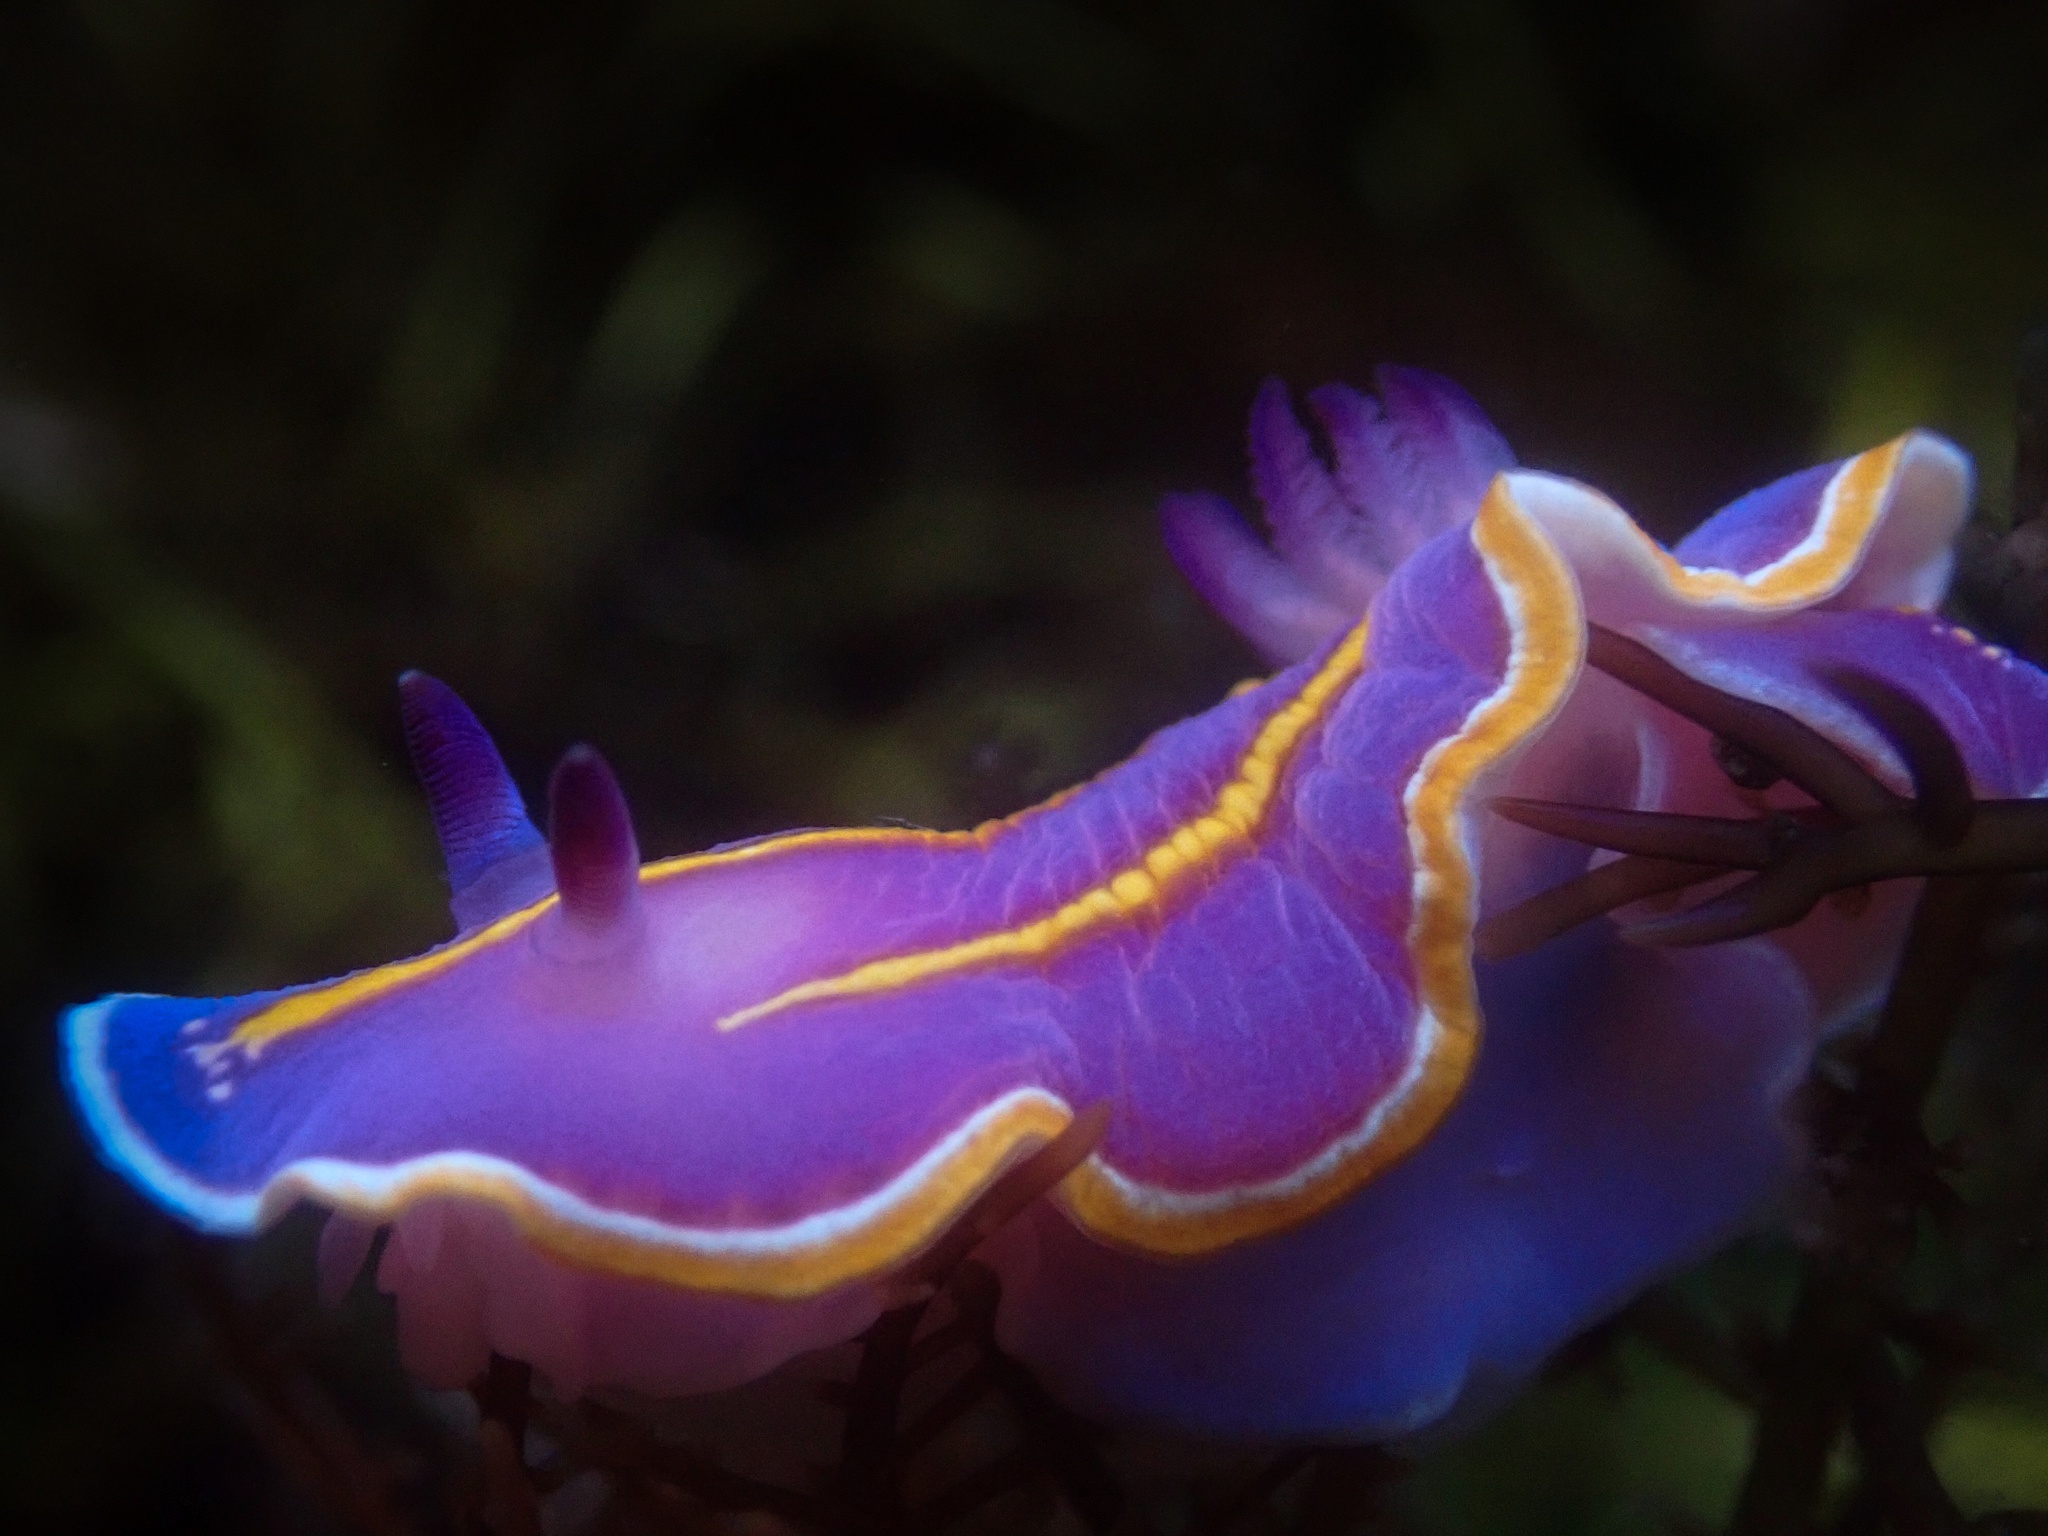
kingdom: Animalia
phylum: Mollusca
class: Gastropoda
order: Nudibranchia
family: Chromodorididae
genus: Felimida
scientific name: Felimida macfarlandi
